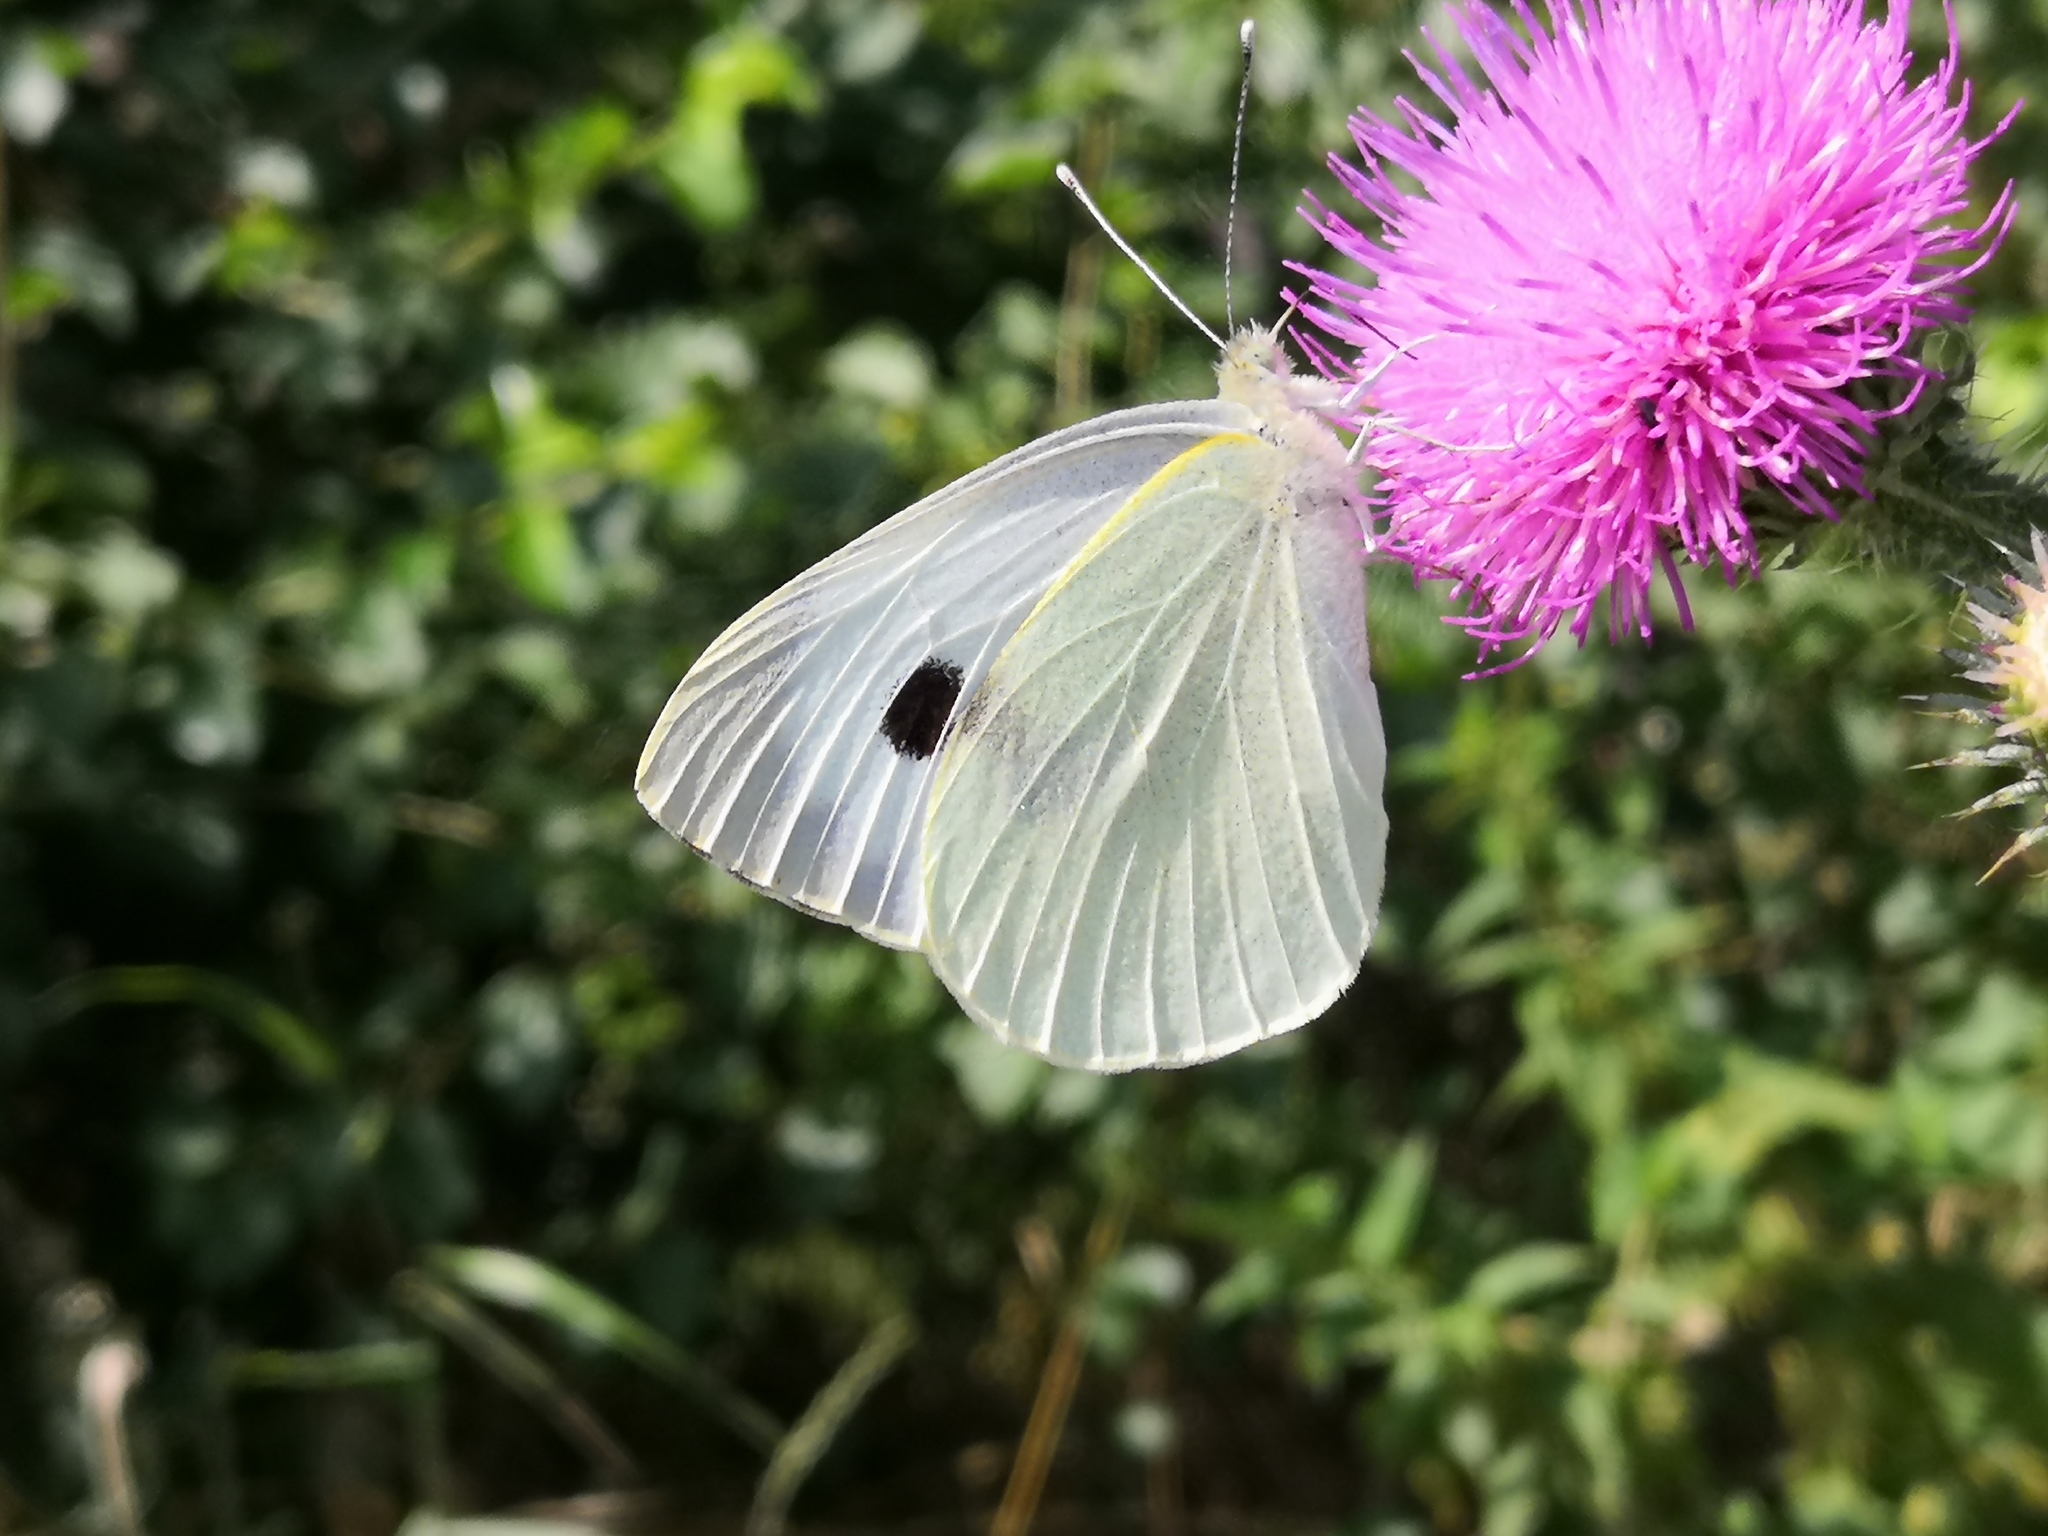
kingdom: Animalia
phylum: Arthropoda
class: Insecta
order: Lepidoptera
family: Pieridae
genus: Pieris
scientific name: Pieris brassicae
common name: Large white
